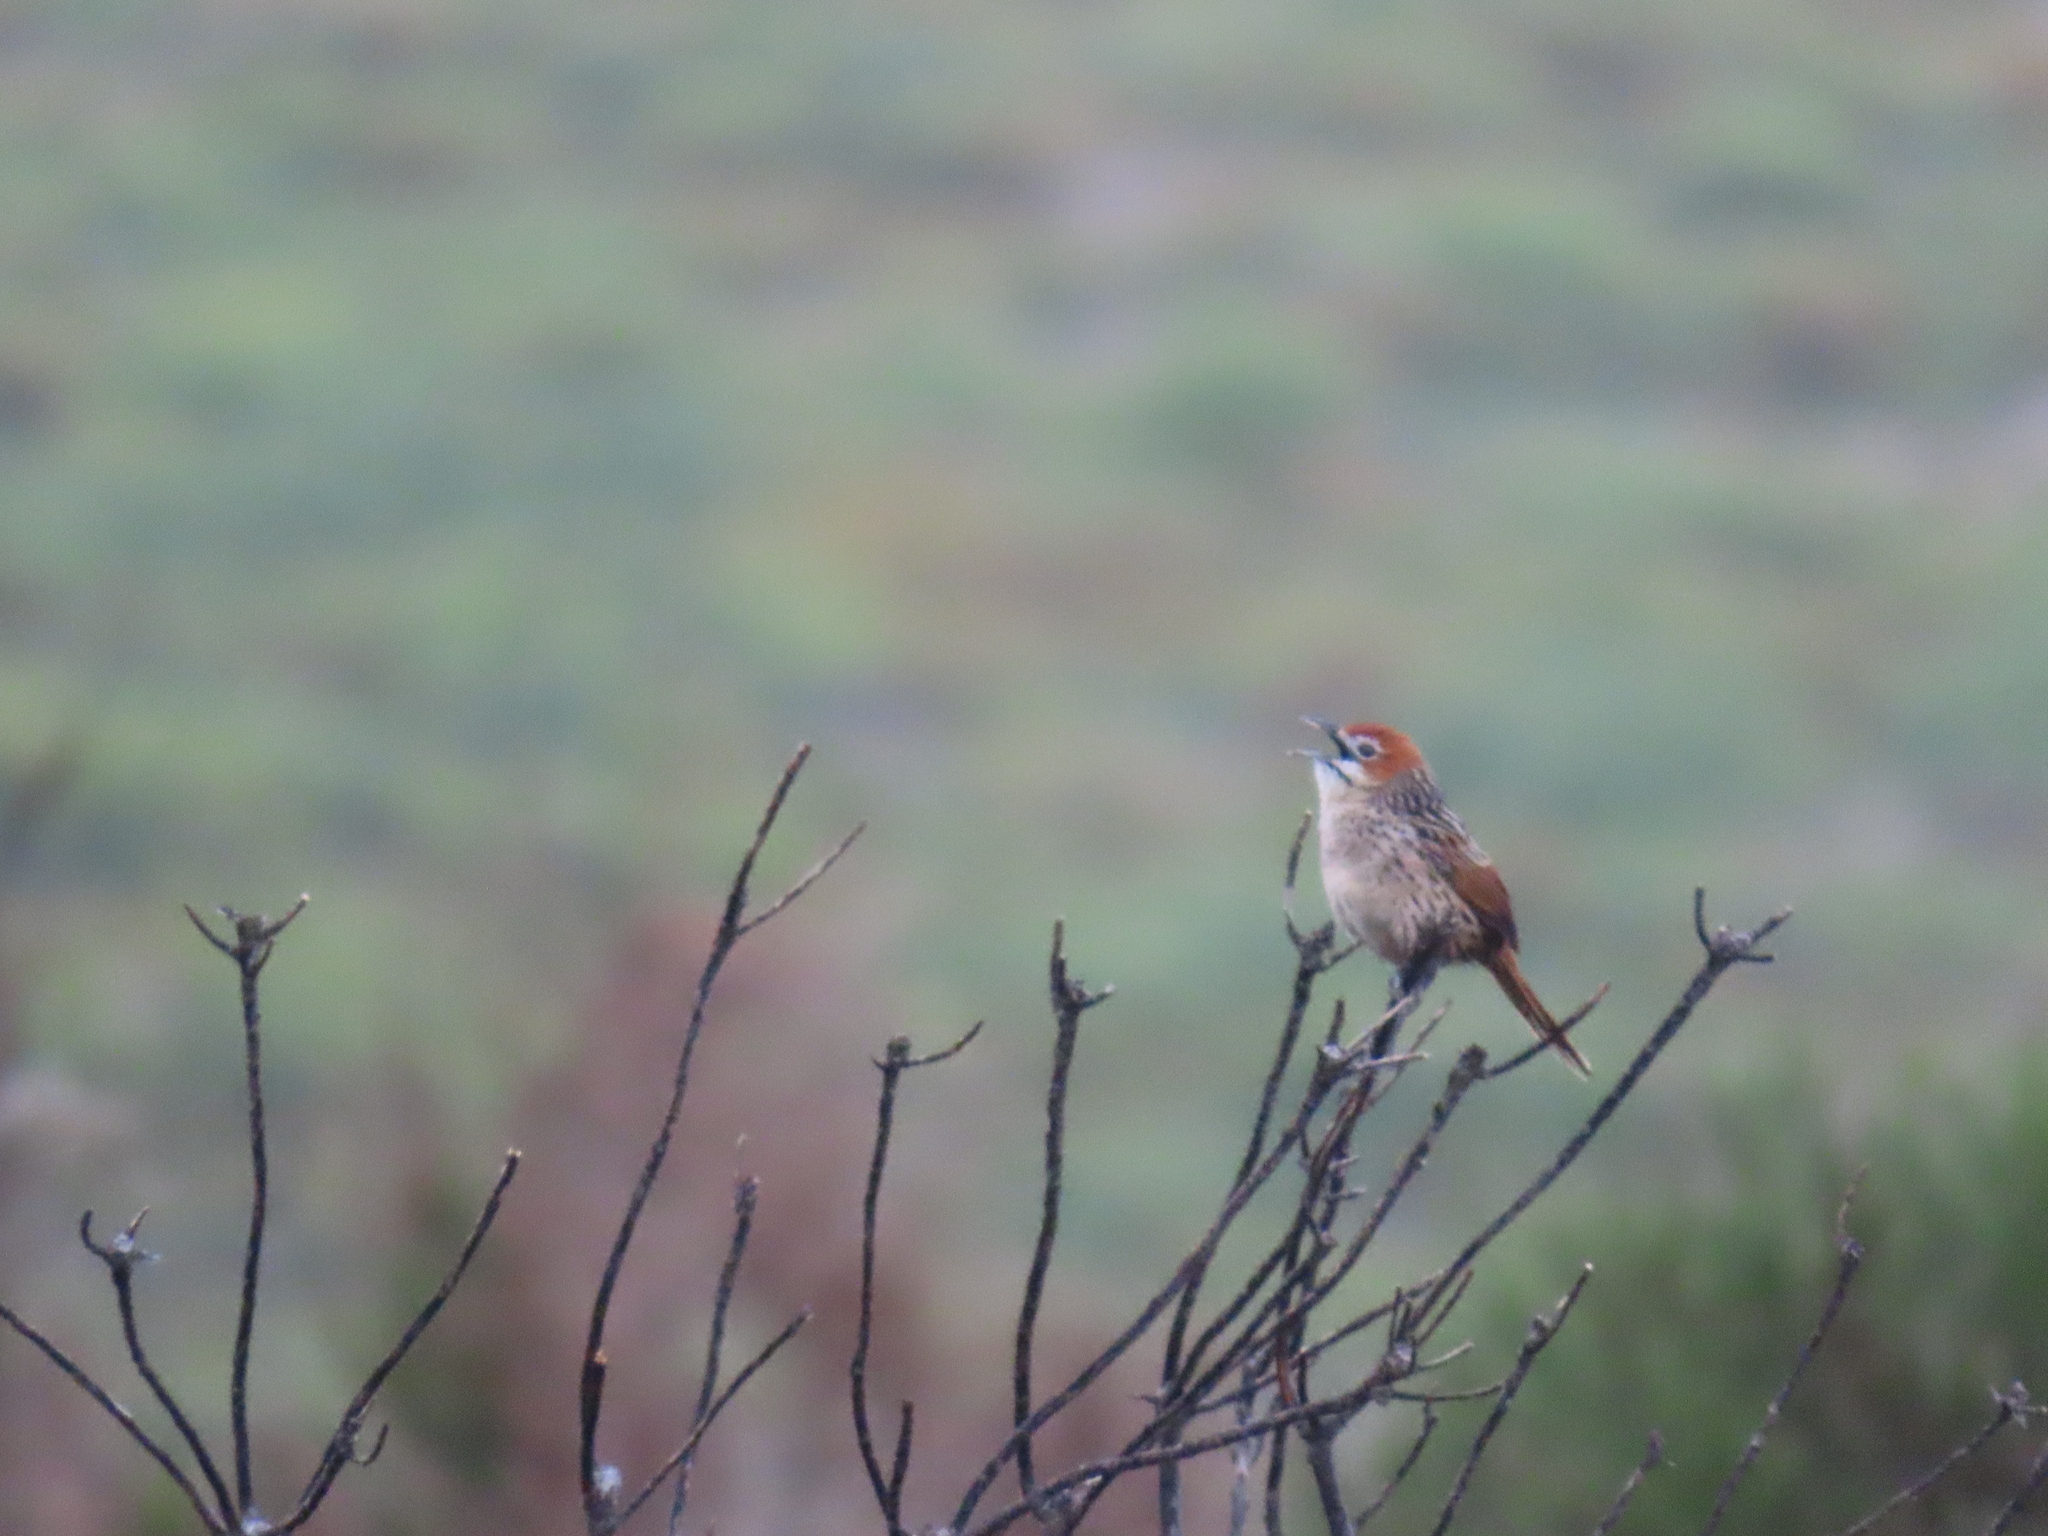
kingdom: Animalia
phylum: Chordata
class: Aves
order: Passeriformes
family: Macrosphenidae
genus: Sphenoeacus
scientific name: Sphenoeacus afer
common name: Cape grassbird
